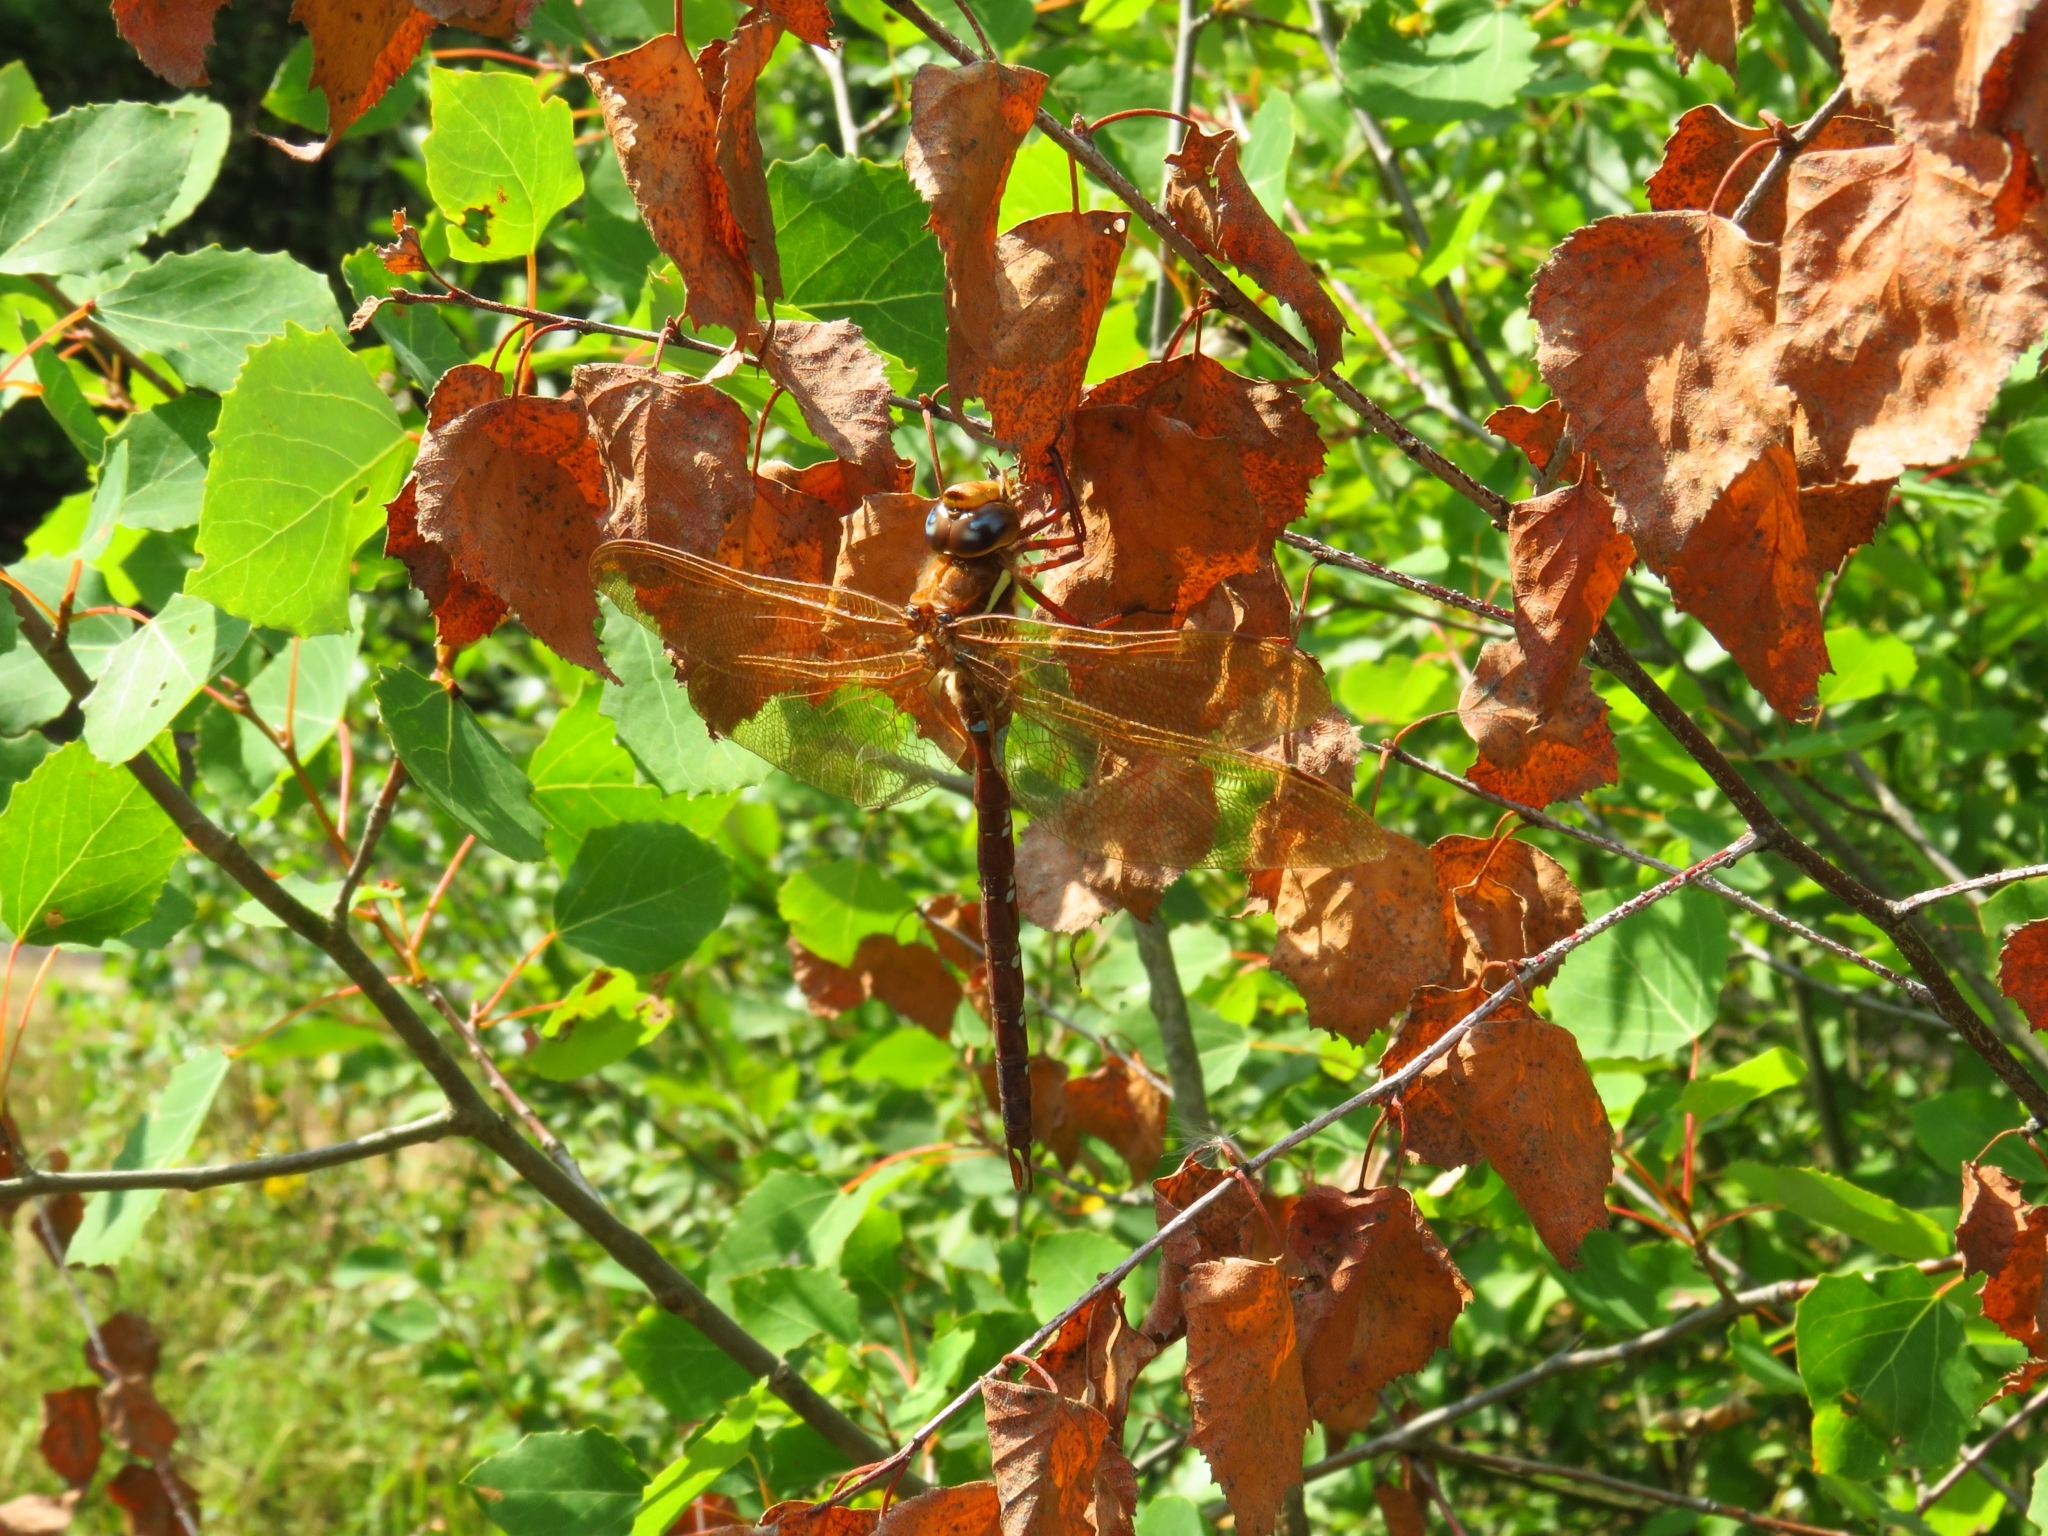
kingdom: Animalia
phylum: Arthropoda
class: Insecta
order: Odonata
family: Aeshnidae
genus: Aeshna
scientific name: Aeshna grandis
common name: Brown hawker
